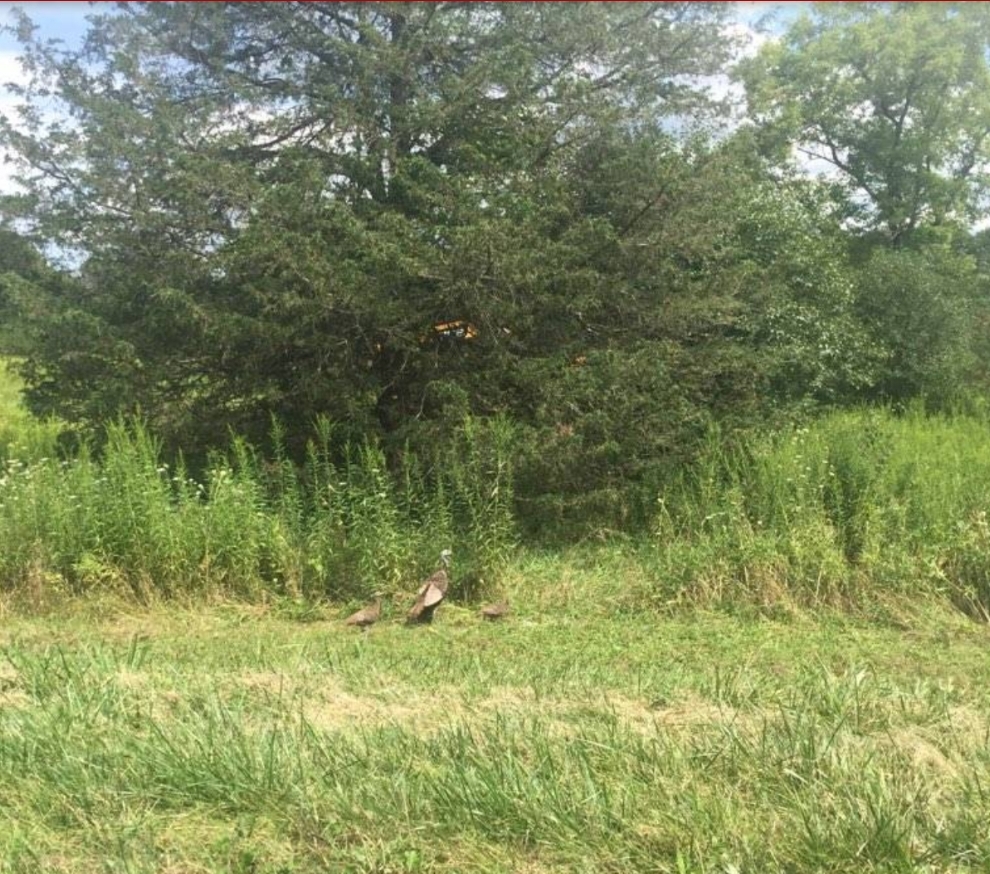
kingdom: Animalia
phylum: Chordata
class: Aves
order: Galliformes
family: Phasianidae
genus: Meleagris
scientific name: Meleagris gallopavo
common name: Wild turkey
